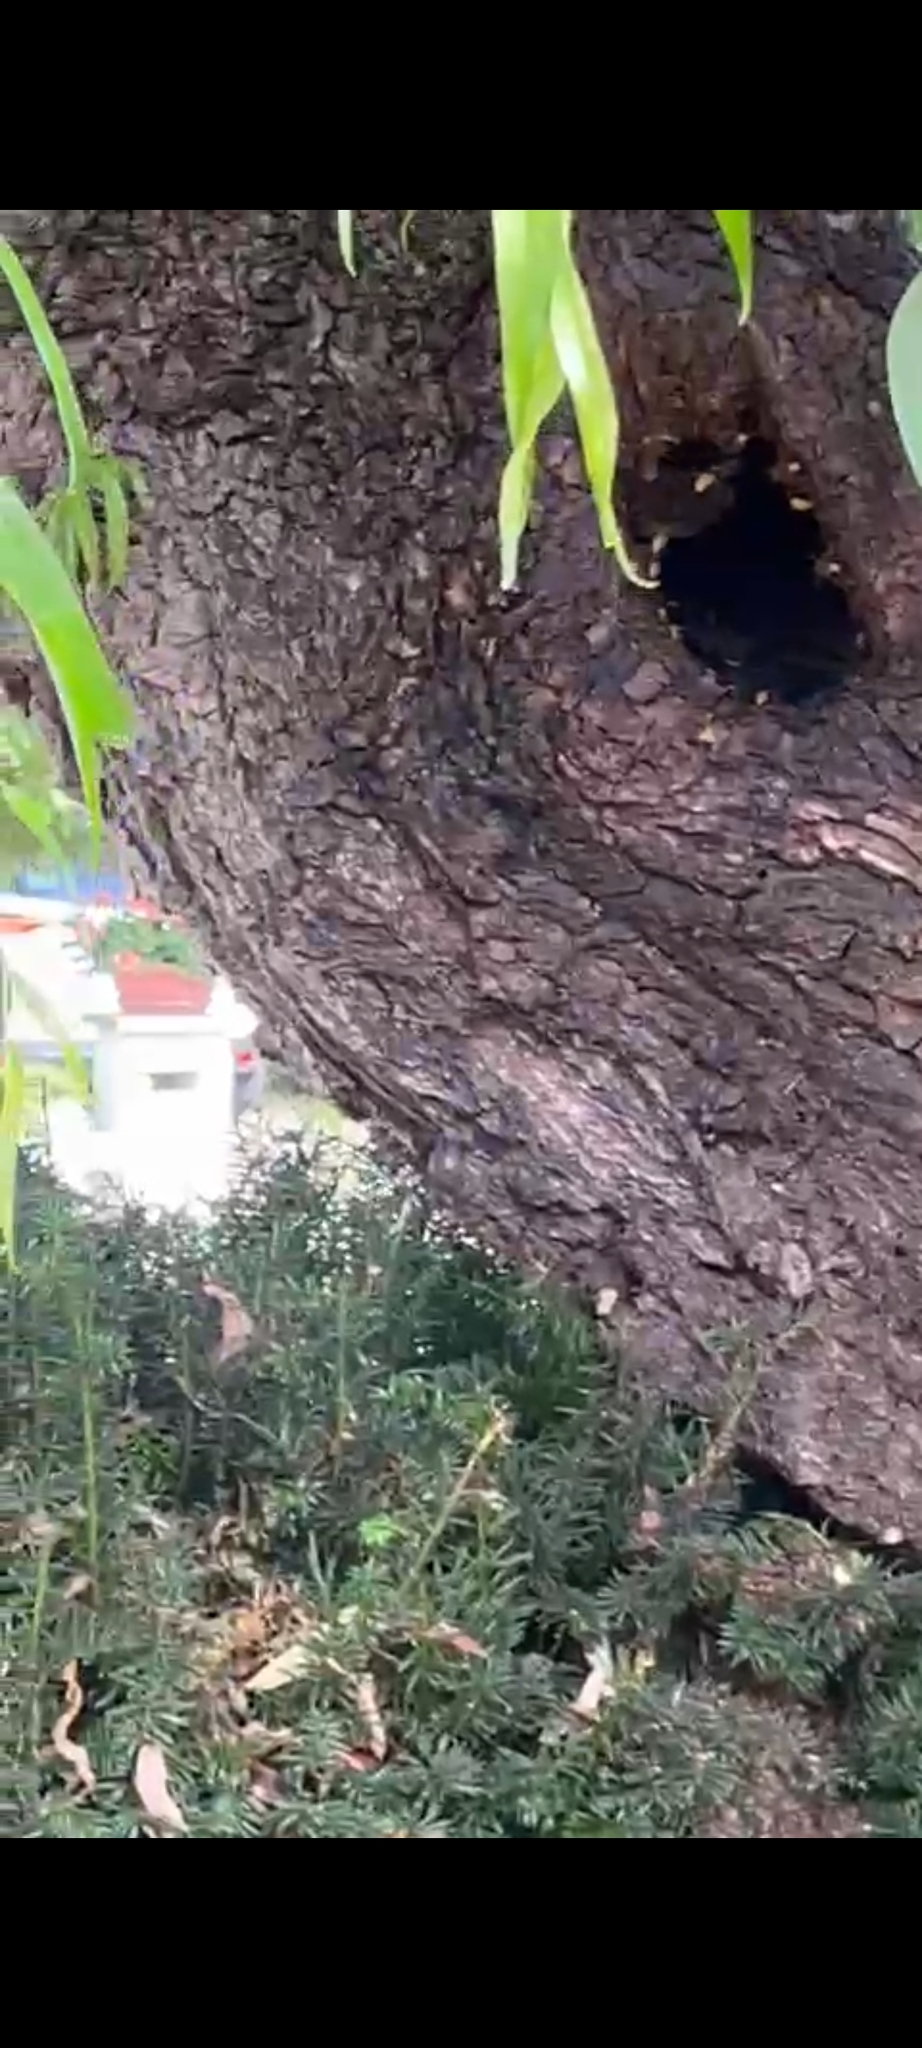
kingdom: Animalia
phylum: Arthropoda
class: Insecta
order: Hymenoptera
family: Vespidae
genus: Vespa
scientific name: Vespa crabro
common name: Hornet
